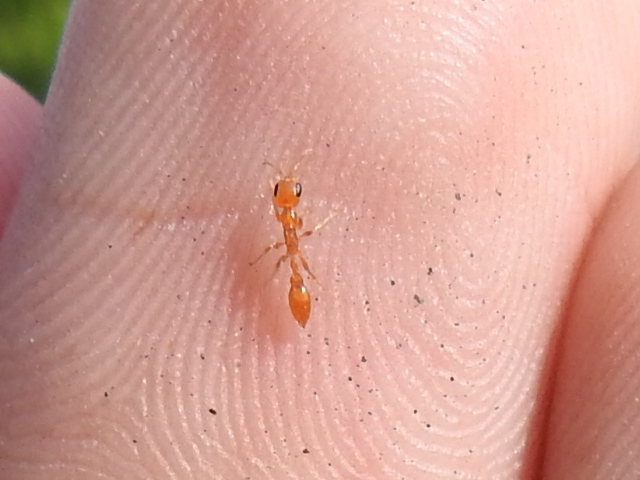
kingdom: Animalia
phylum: Arthropoda
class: Insecta
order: Hymenoptera
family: Formicidae
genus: Pseudomyrmex
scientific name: Pseudomyrmex pallidus
